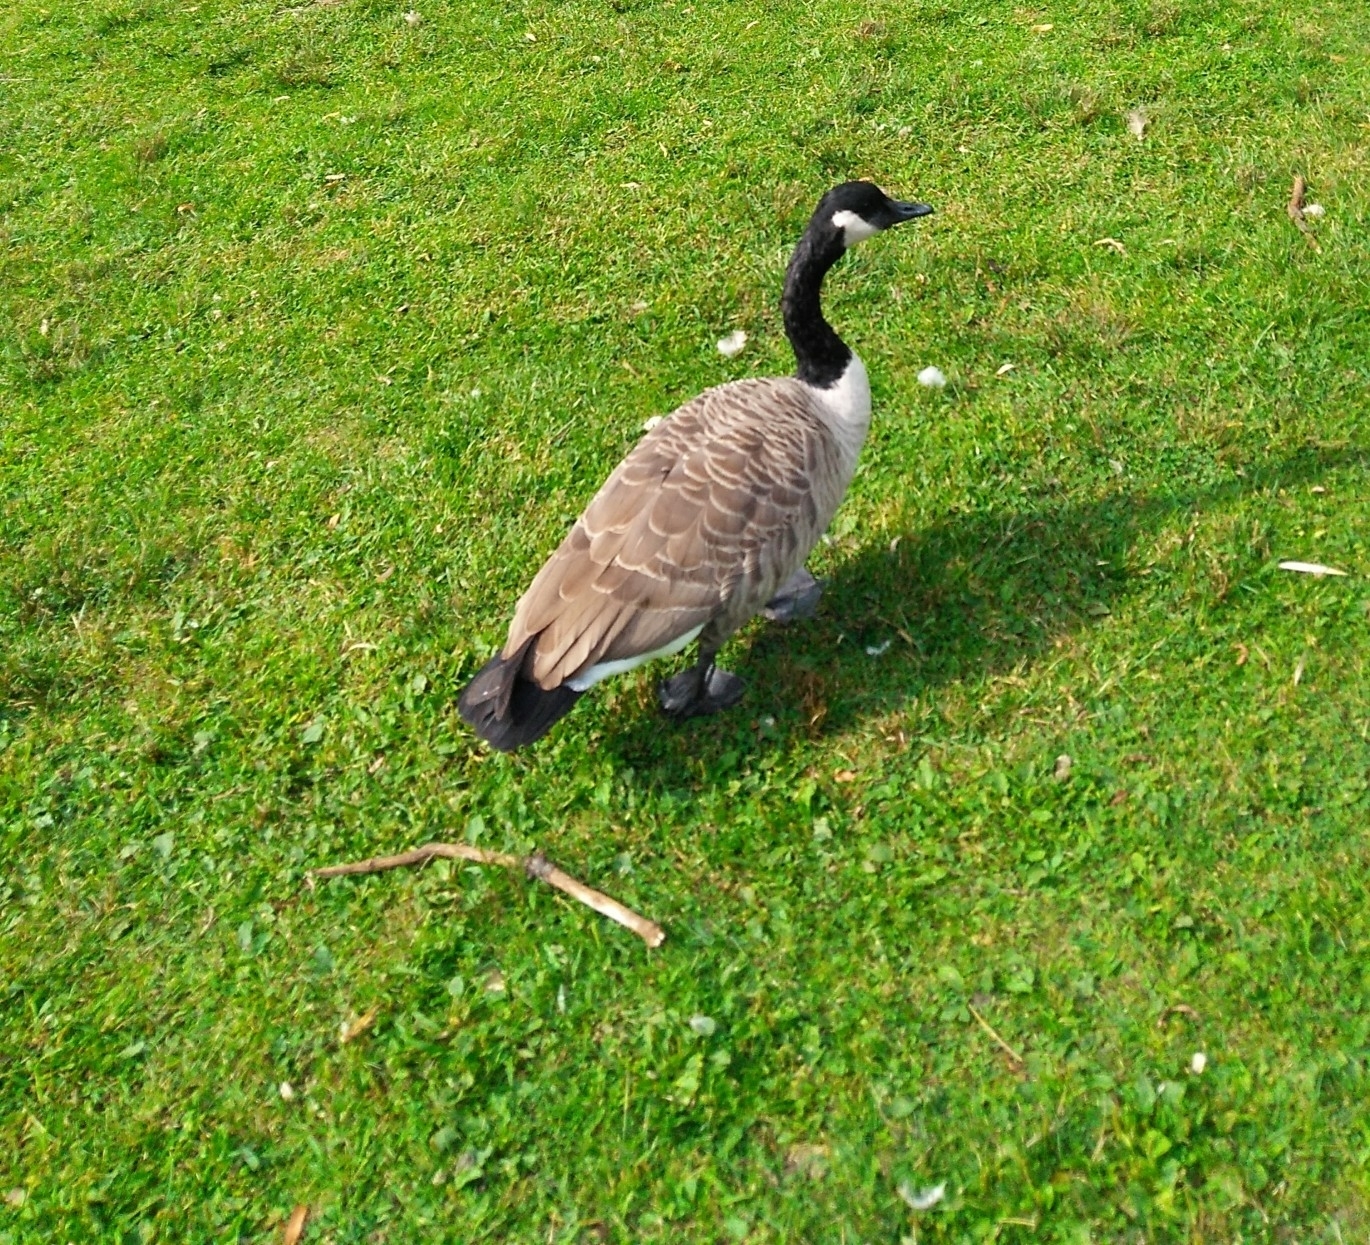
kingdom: Animalia
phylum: Chordata
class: Aves
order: Anseriformes
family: Anatidae
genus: Branta
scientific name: Branta canadensis
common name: Canada goose
